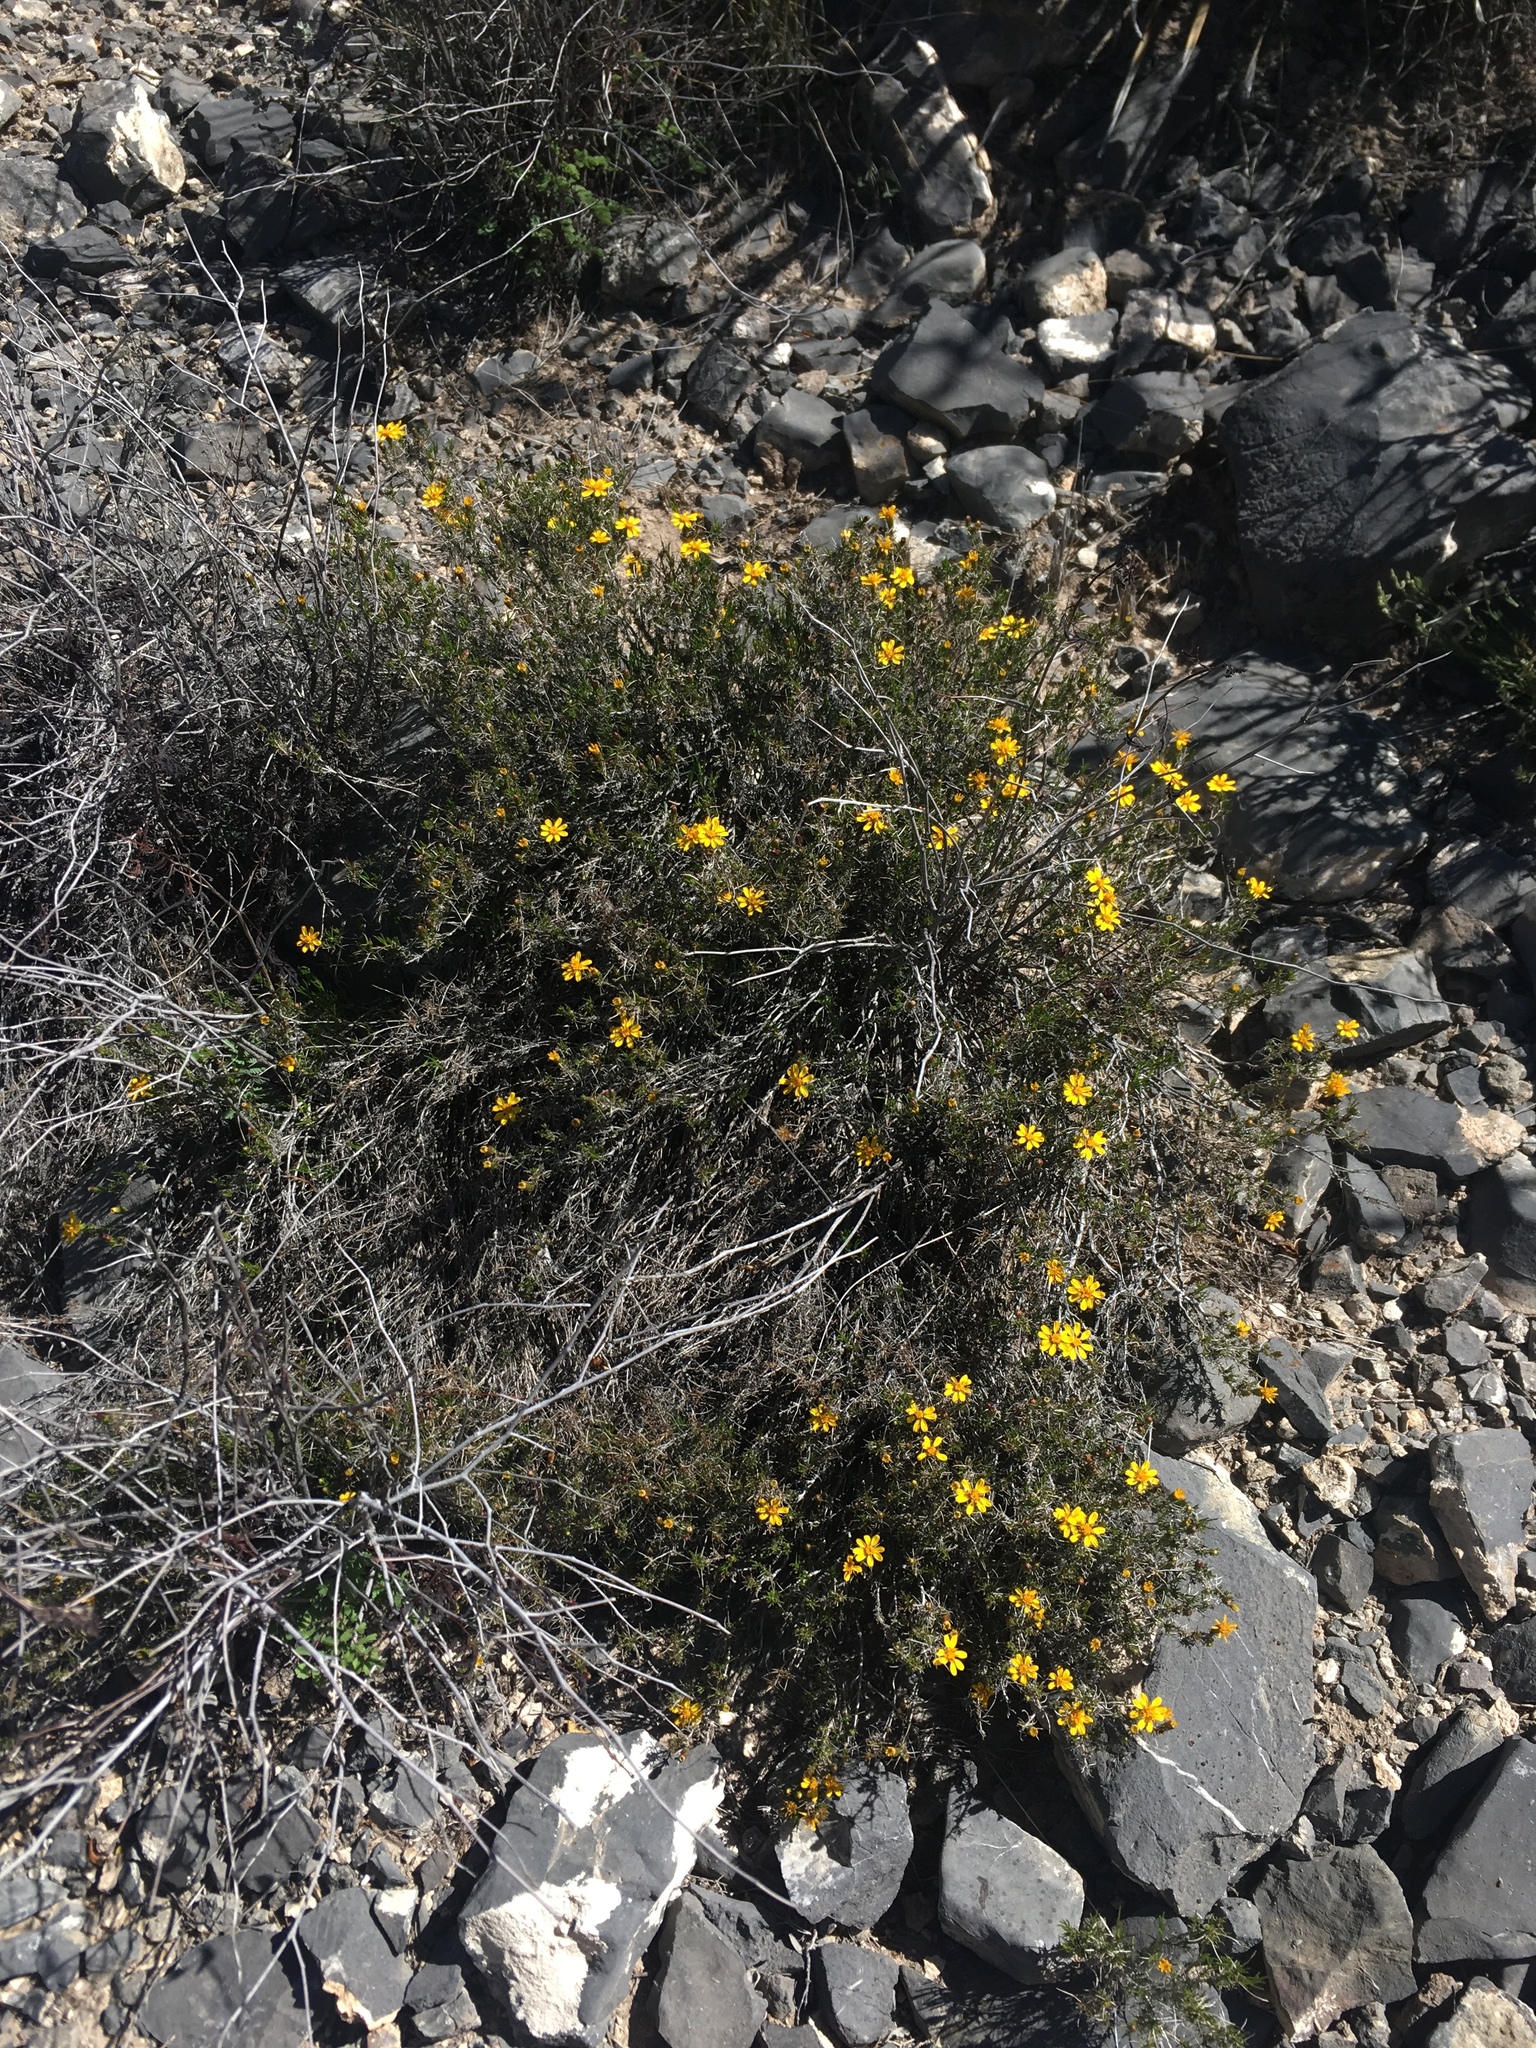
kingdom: Plantae
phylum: Tracheophyta
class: Magnoliopsida
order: Asterales
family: Asteraceae
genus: Thymophylla
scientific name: Thymophylla acerosa
